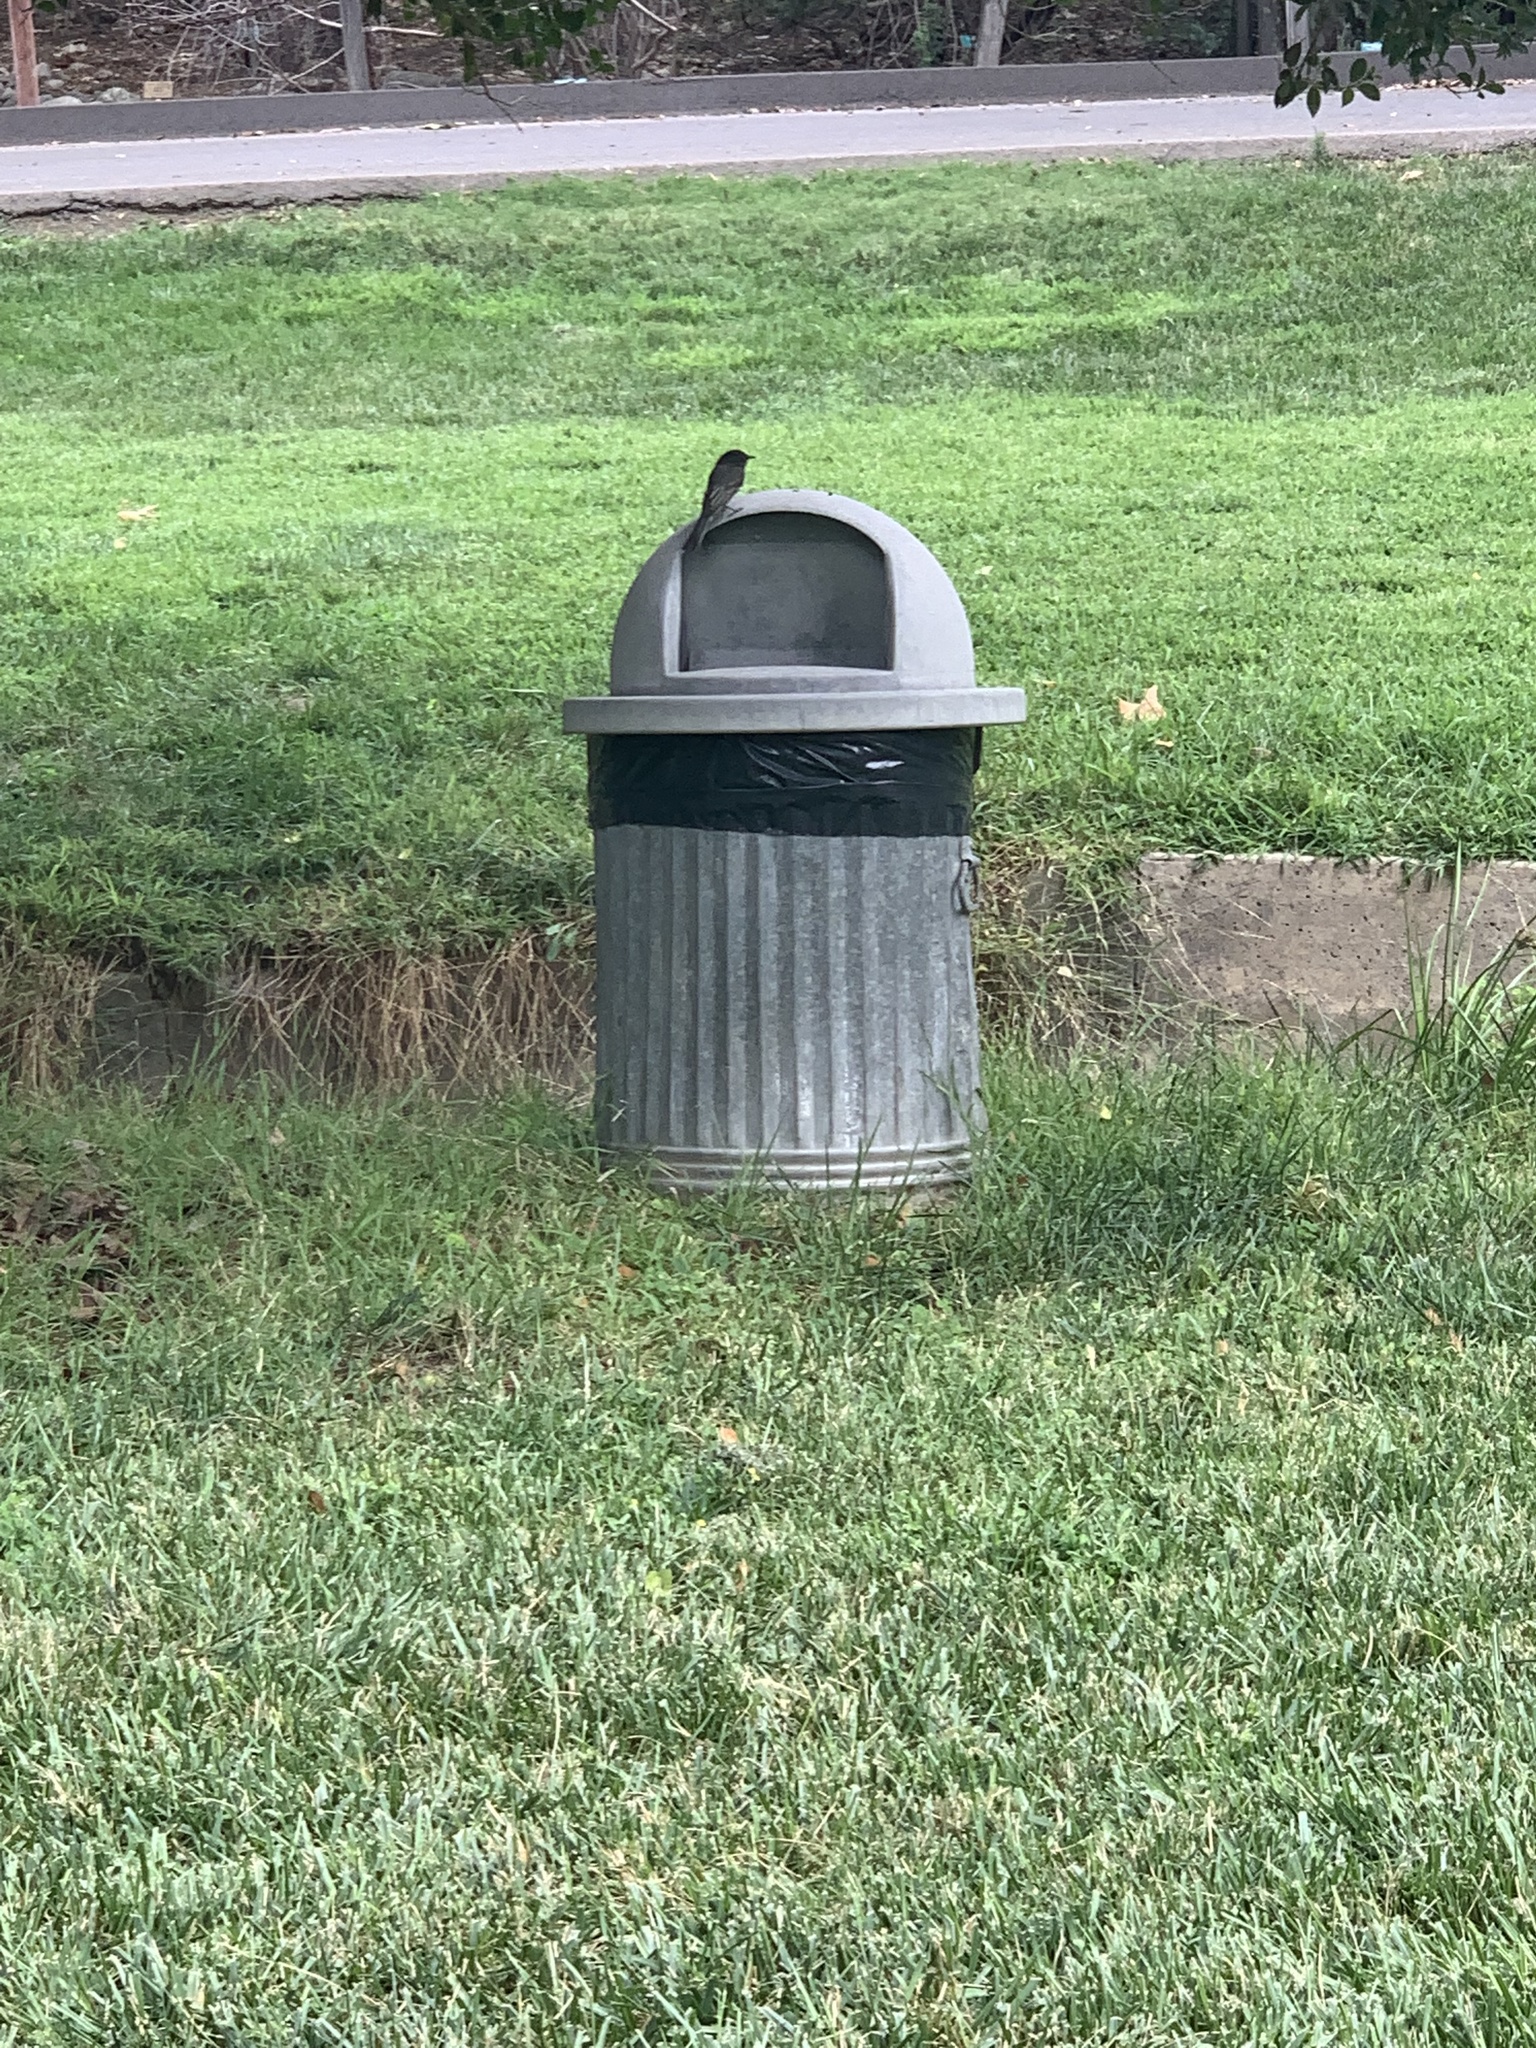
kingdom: Animalia
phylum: Chordata
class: Aves
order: Passeriformes
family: Tyrannidae
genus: Sayornis
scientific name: Sayornis nigricans
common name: Black phoebe
